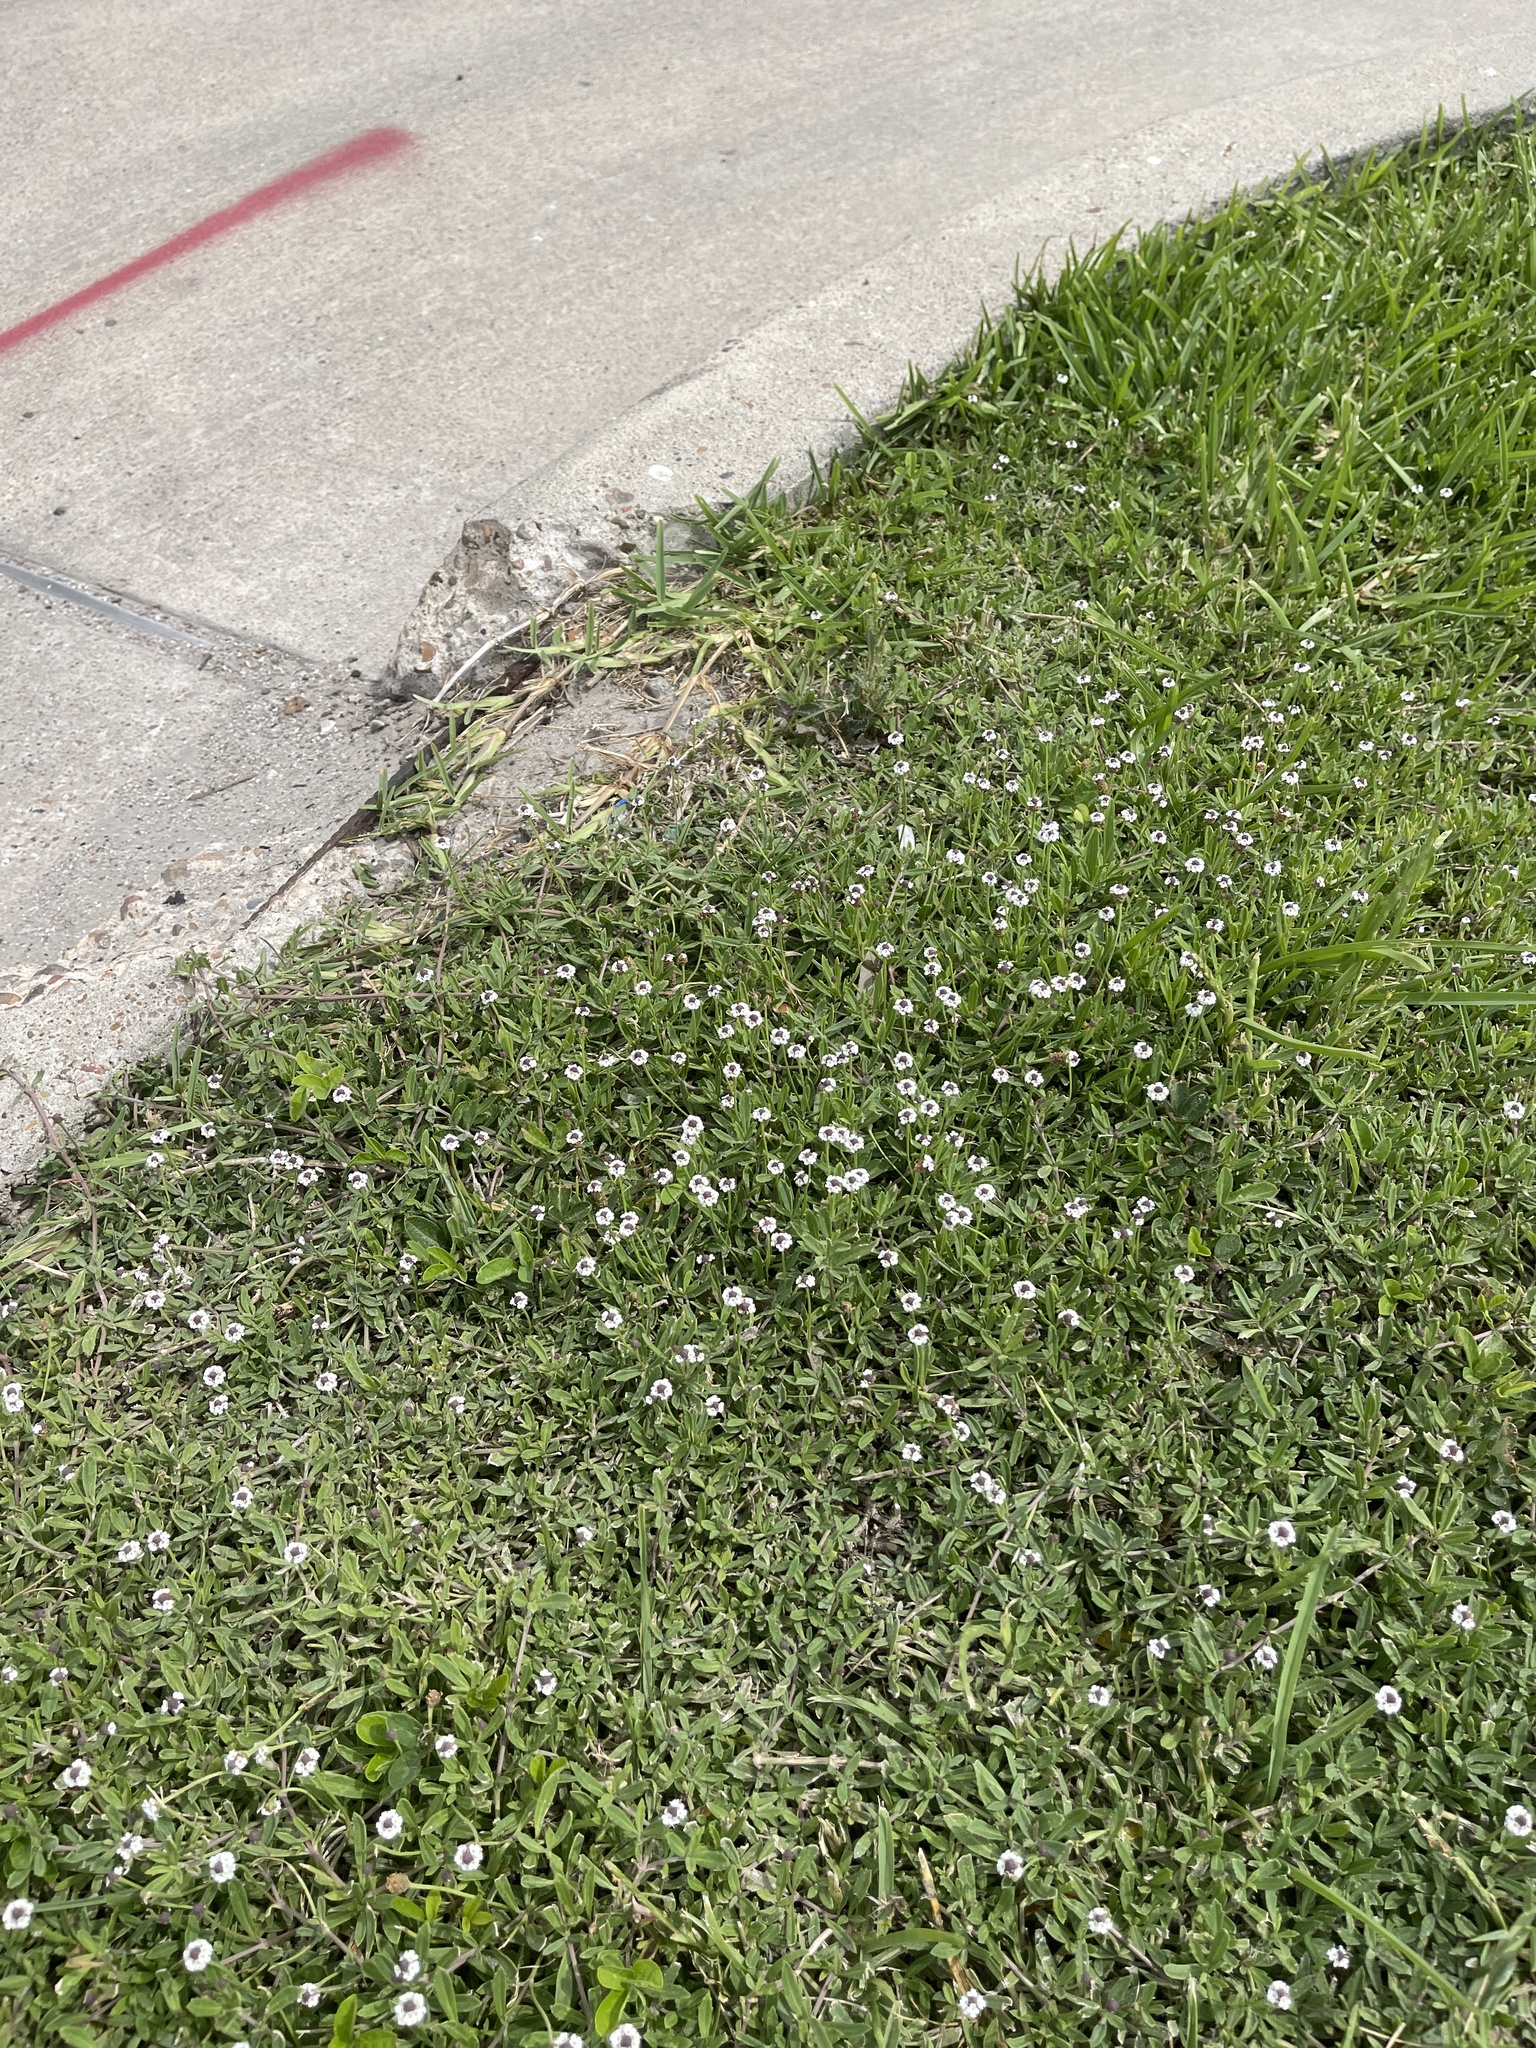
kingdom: Plantae
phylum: Tracheophyta
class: Magnoliopsida
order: Lamiales
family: Verbenaceae
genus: Phyla
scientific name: Phyla nodiflora
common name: Frogfruit
